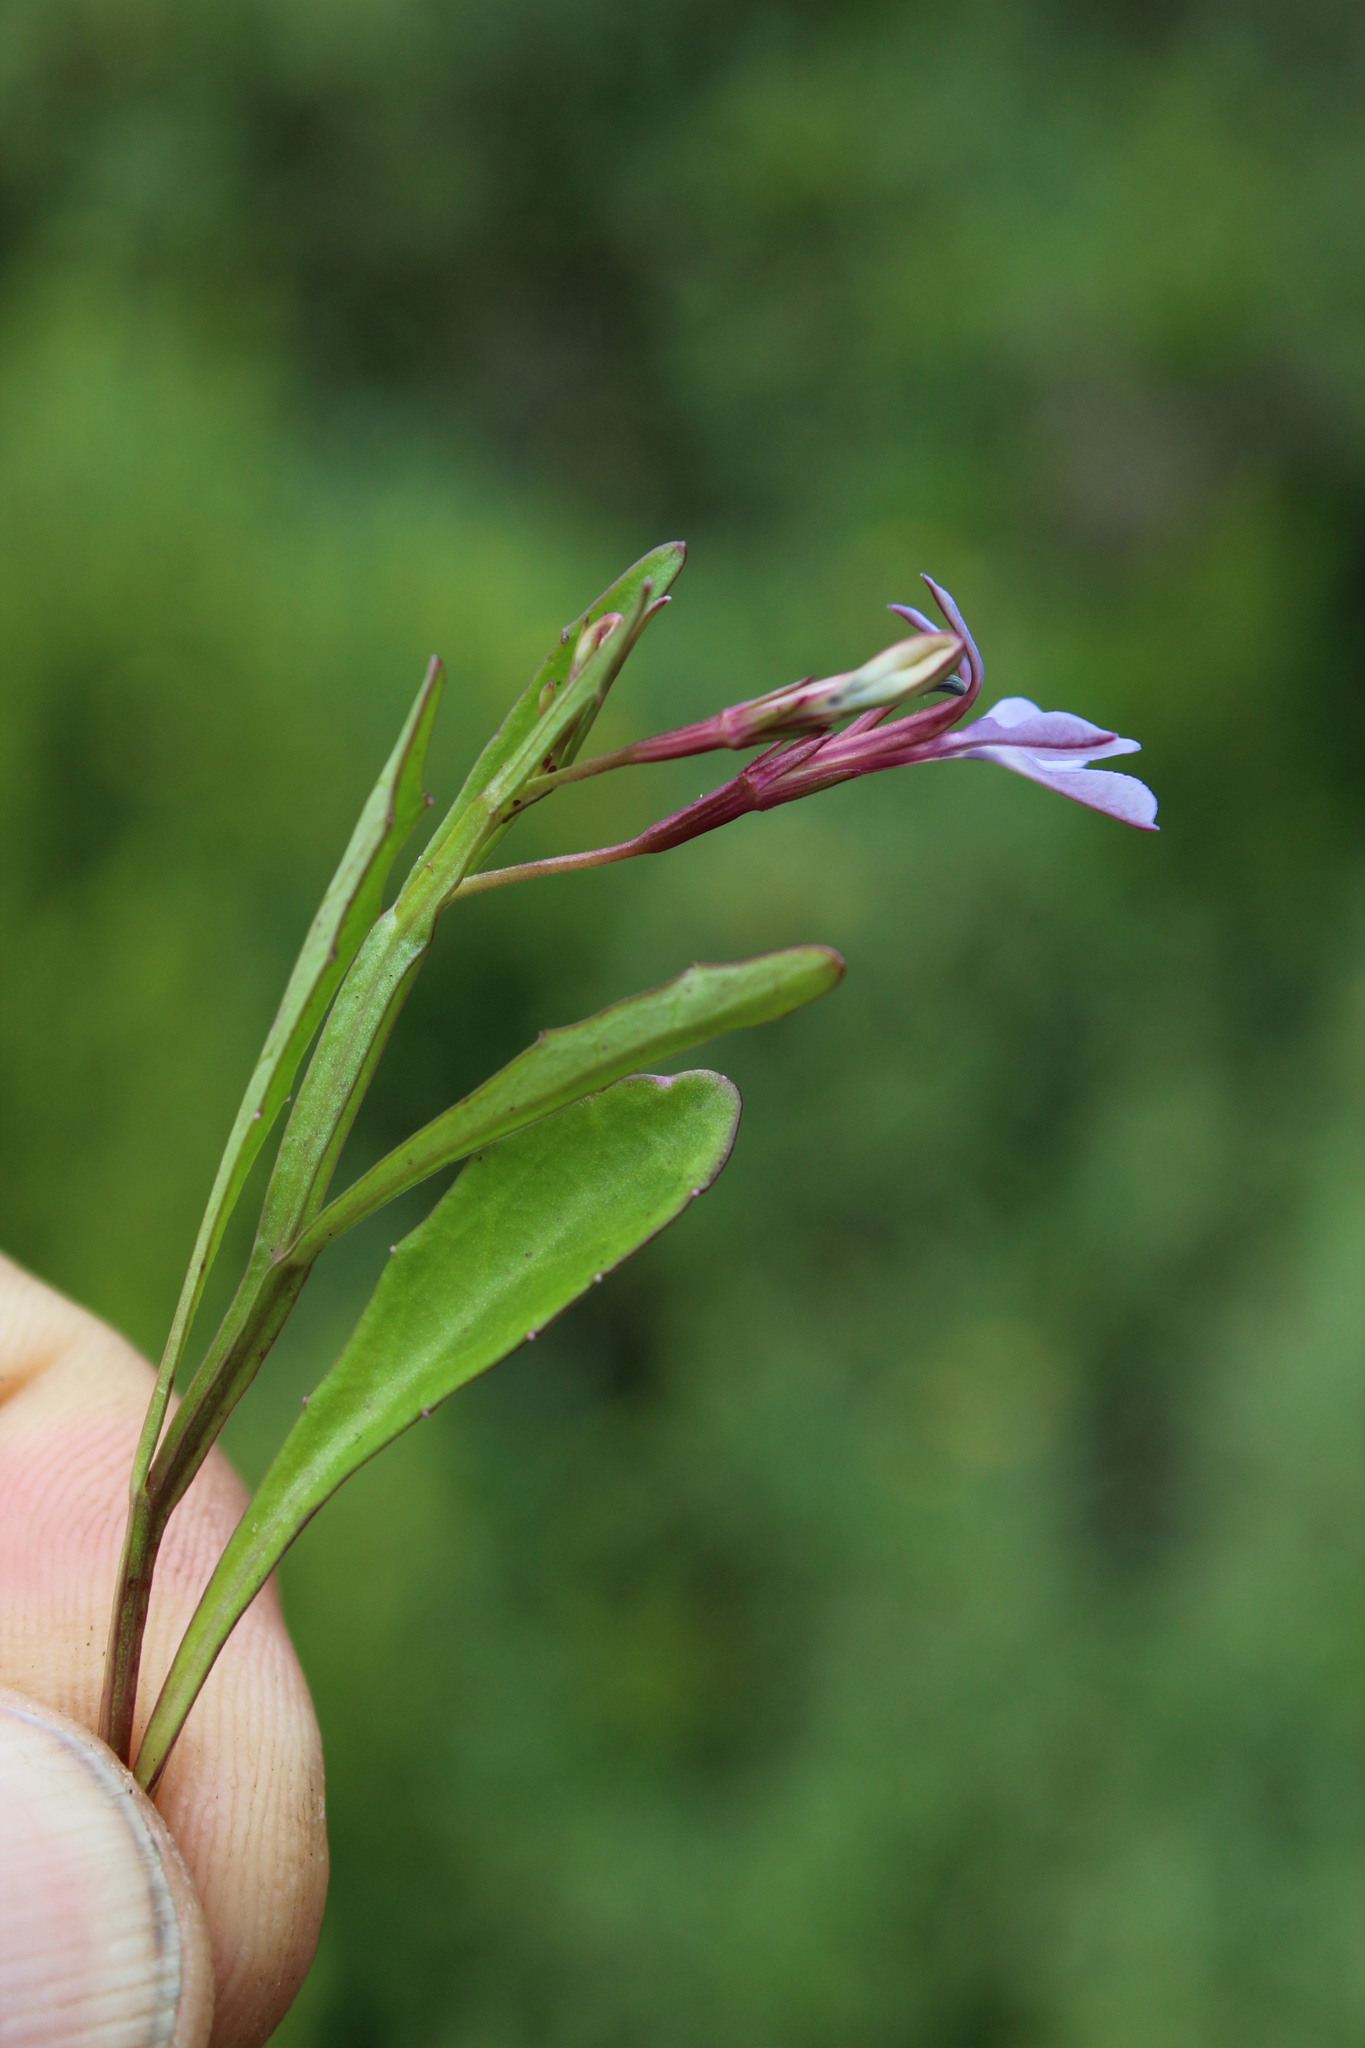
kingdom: Plantae
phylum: Tracheophyta
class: Magnoliopsida
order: Asterales
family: Campanulaceae
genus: Lobelia
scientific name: Lobelia anceps
